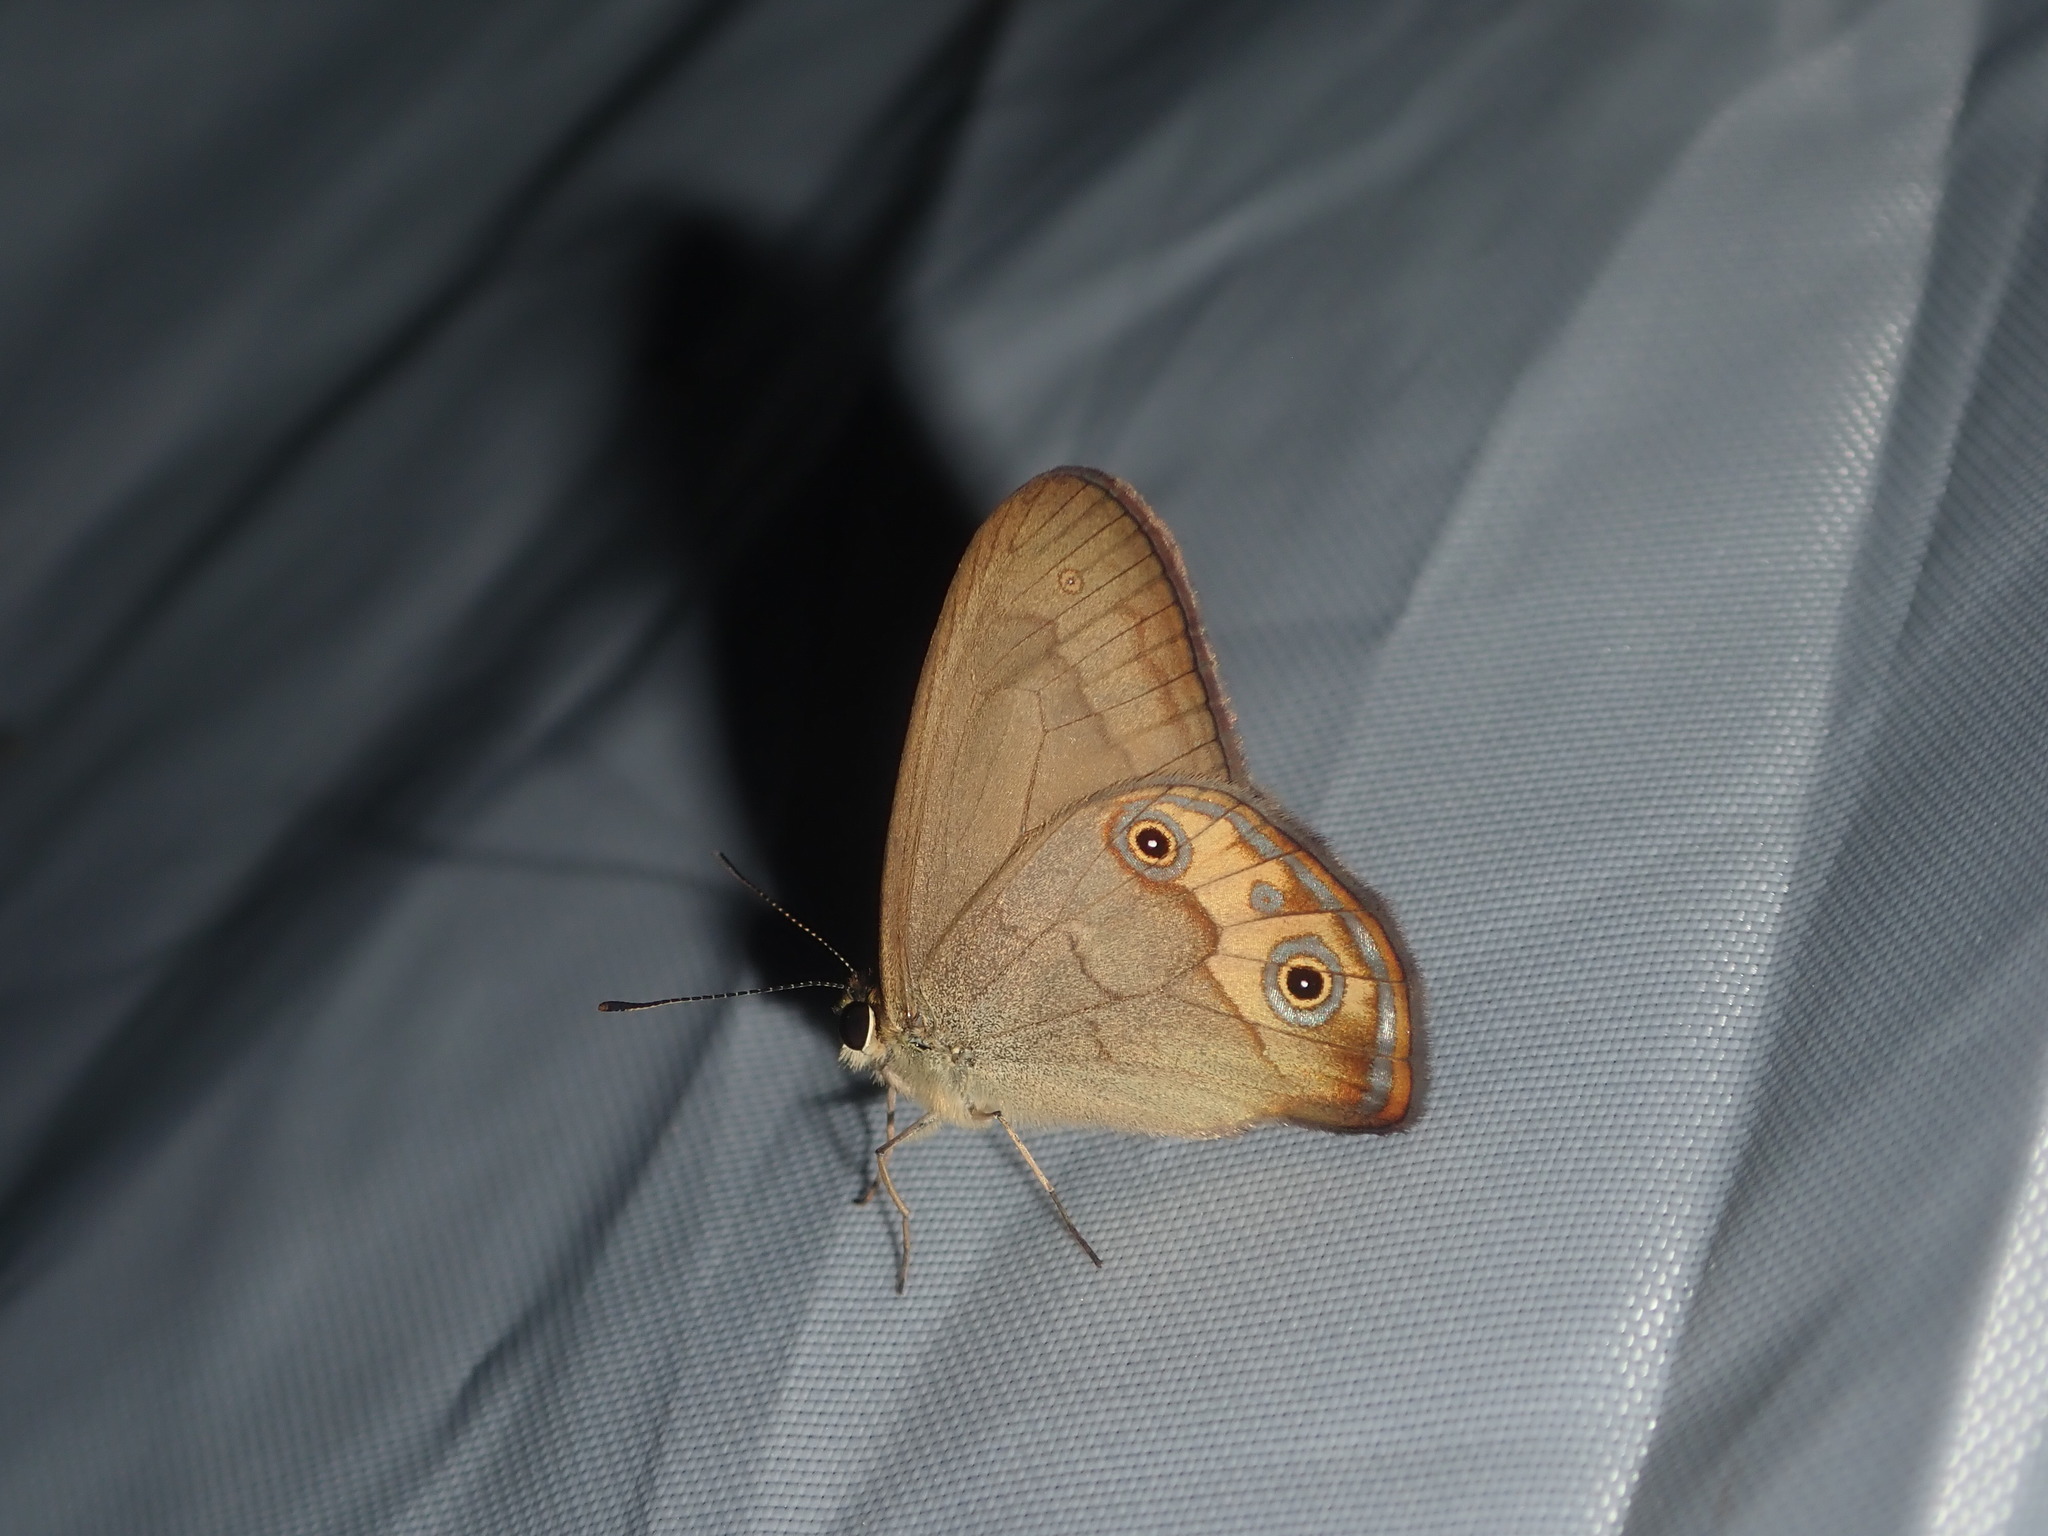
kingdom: Animalia
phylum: Arthropoda
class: Insecta
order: Lepidoptera
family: Nymphalidae
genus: Hypocysta
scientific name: Hypocysta metirius
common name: Brown ringlet
